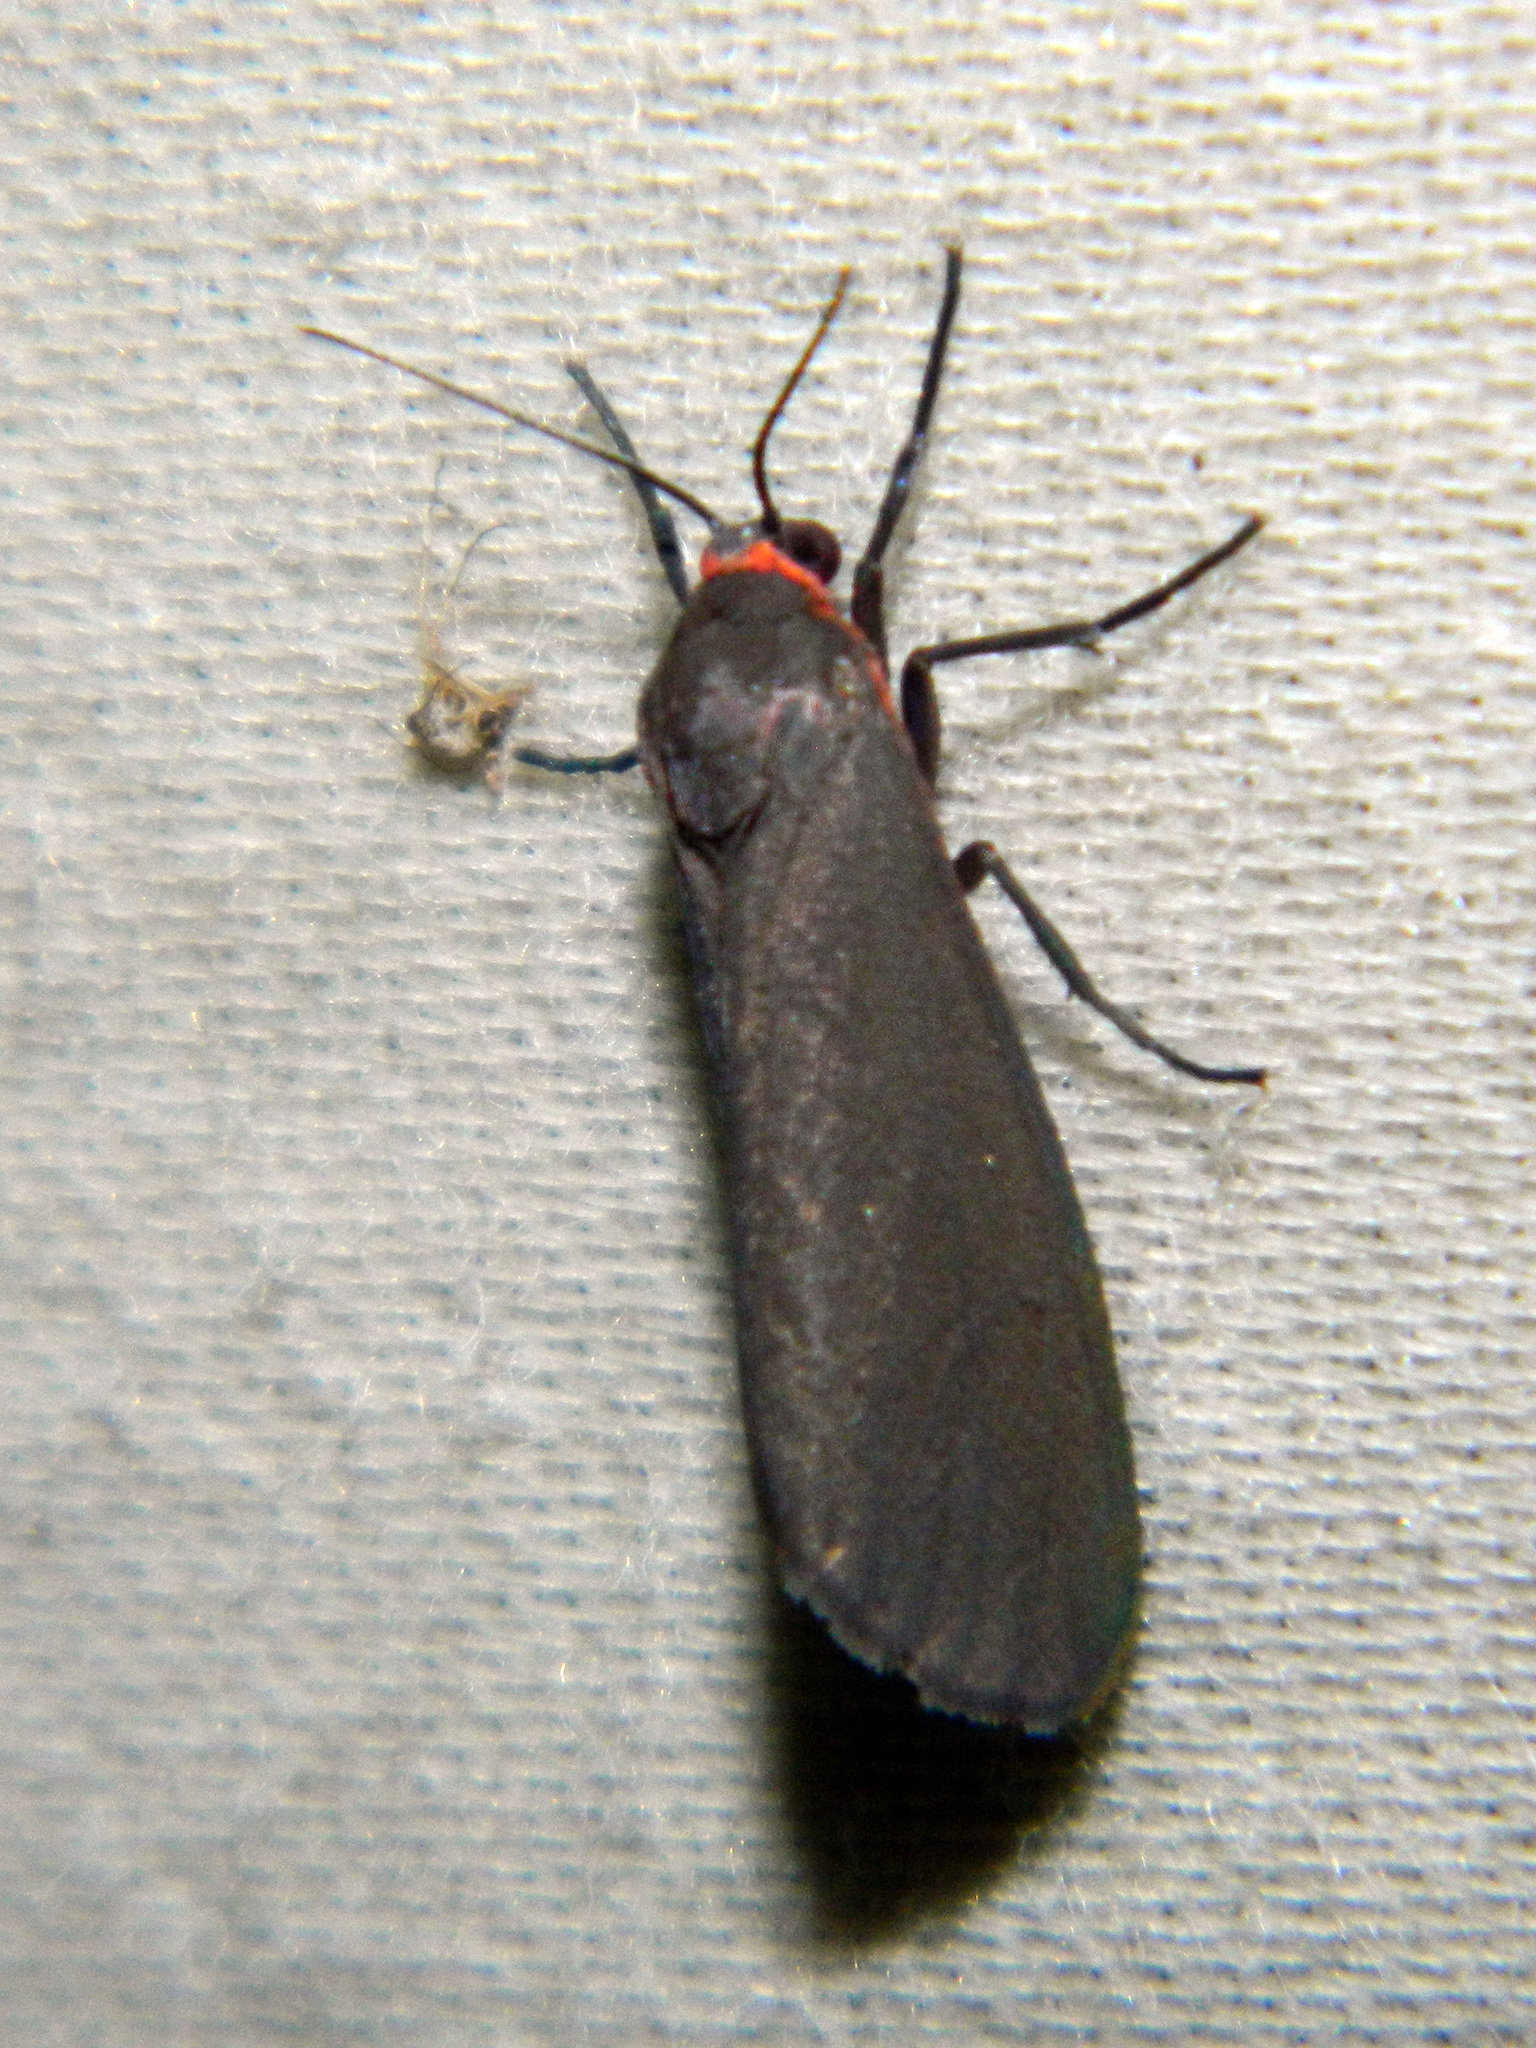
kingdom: Animalia
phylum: Arthropoda
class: Insecta
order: Lepidoptera
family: Erebidae
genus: Virbia
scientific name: Virbia laeta
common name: Joyful holomelina moth
